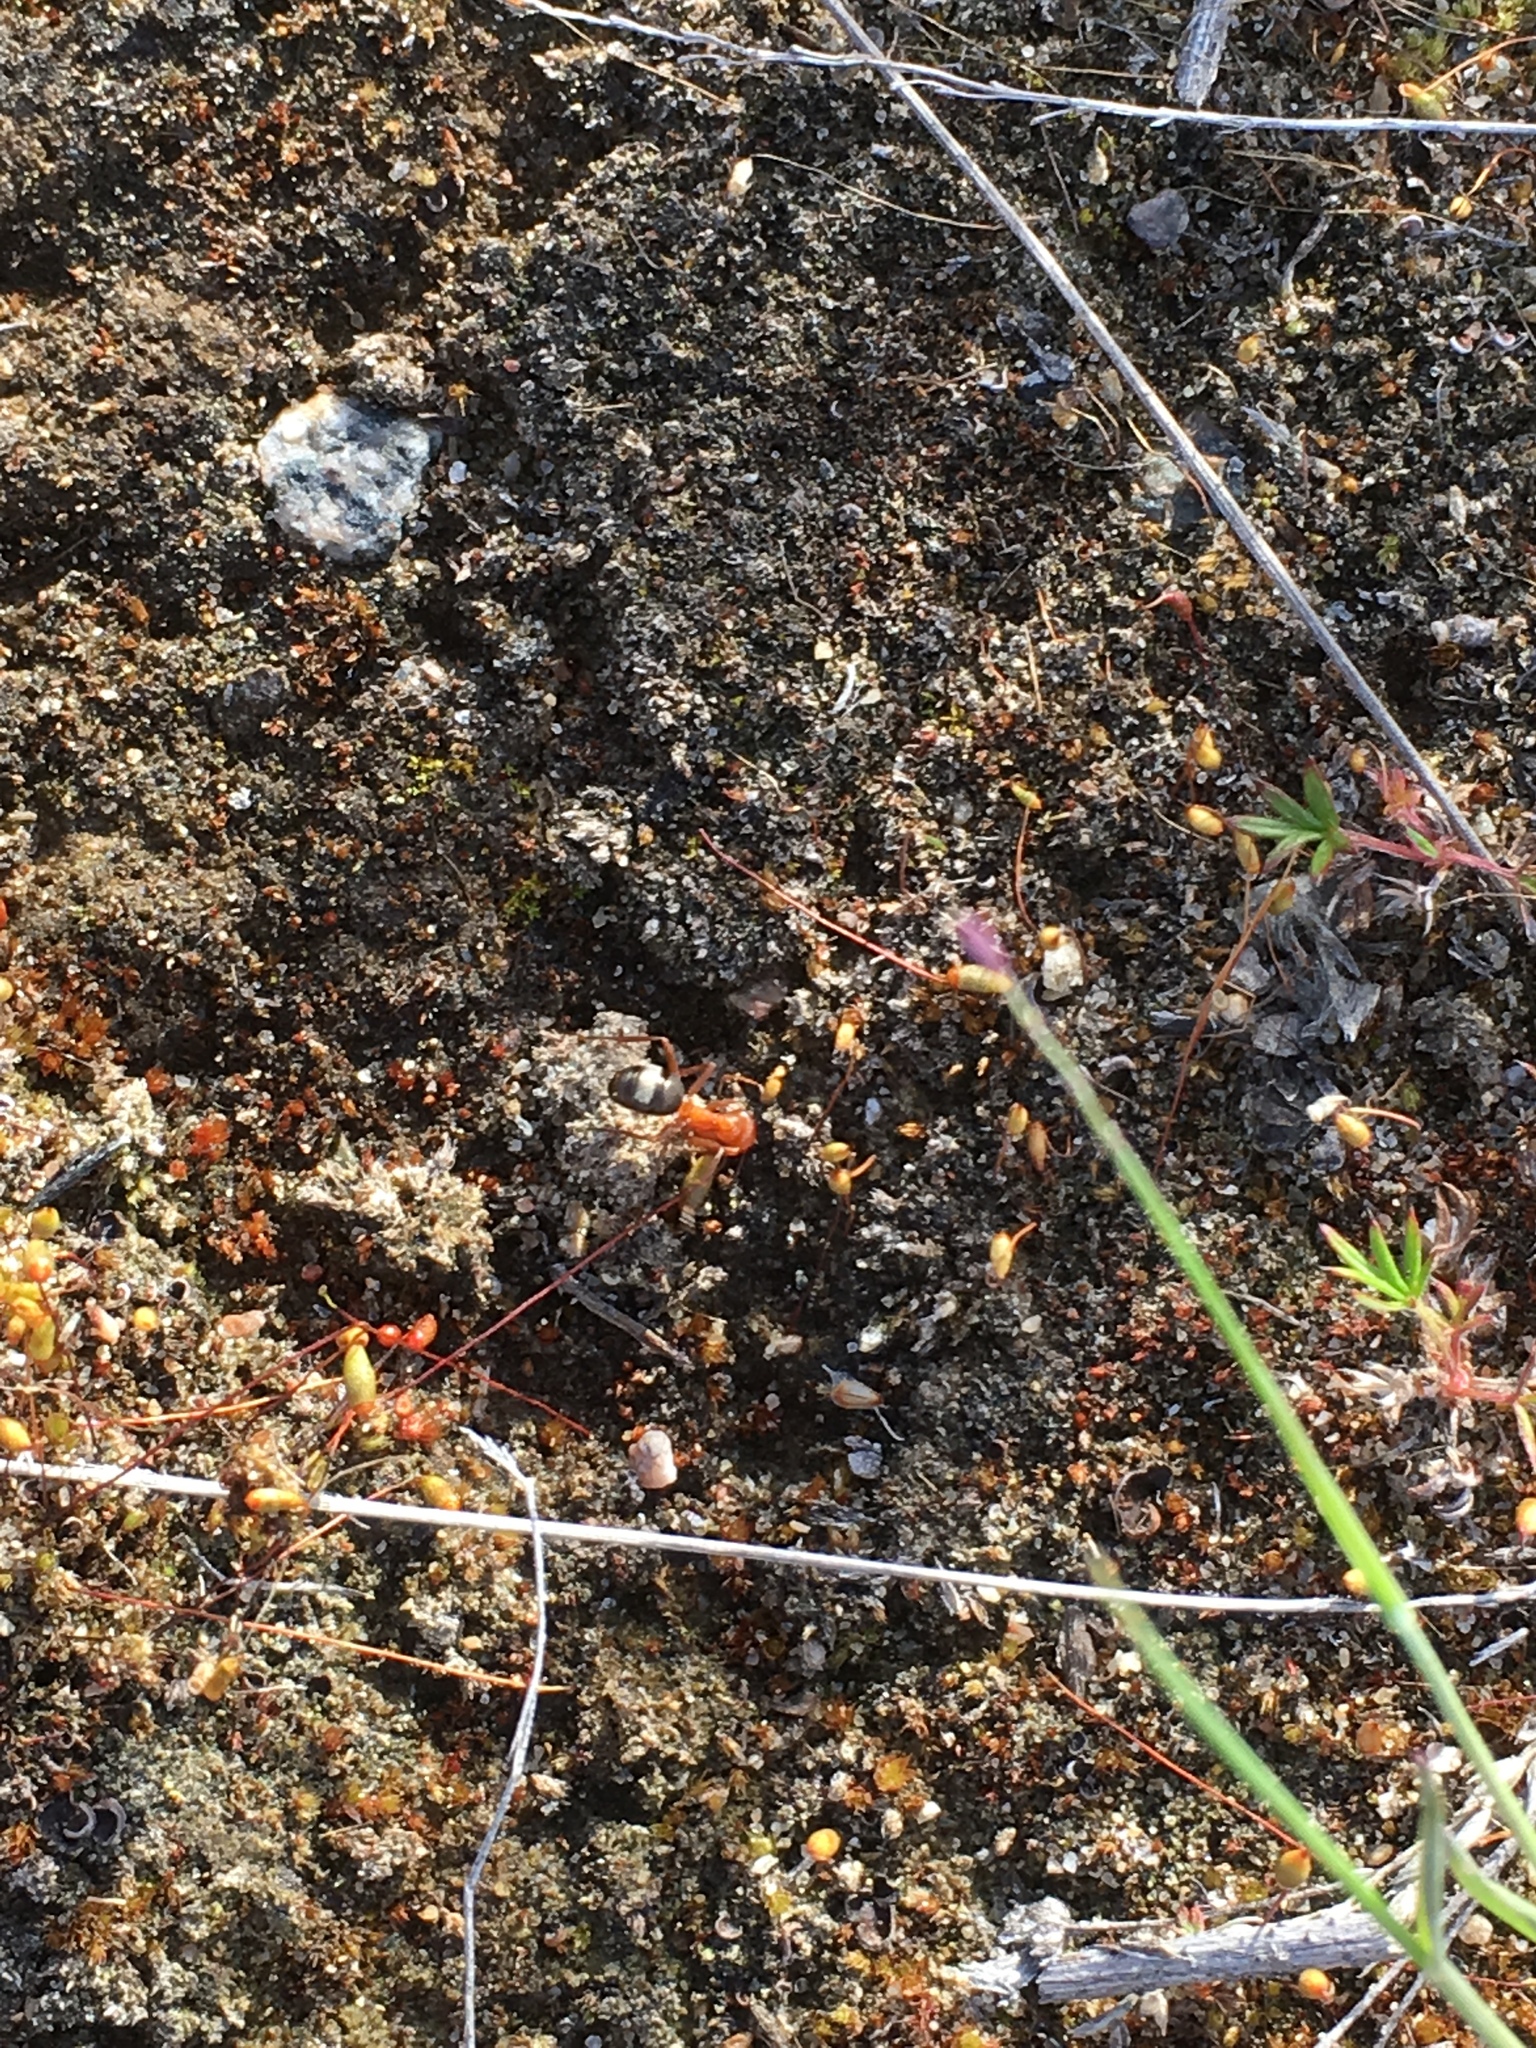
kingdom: Animalia
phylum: Arthropoda
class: Insecta
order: Hymenoptera
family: Formicidae
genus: Formica
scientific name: Formica
